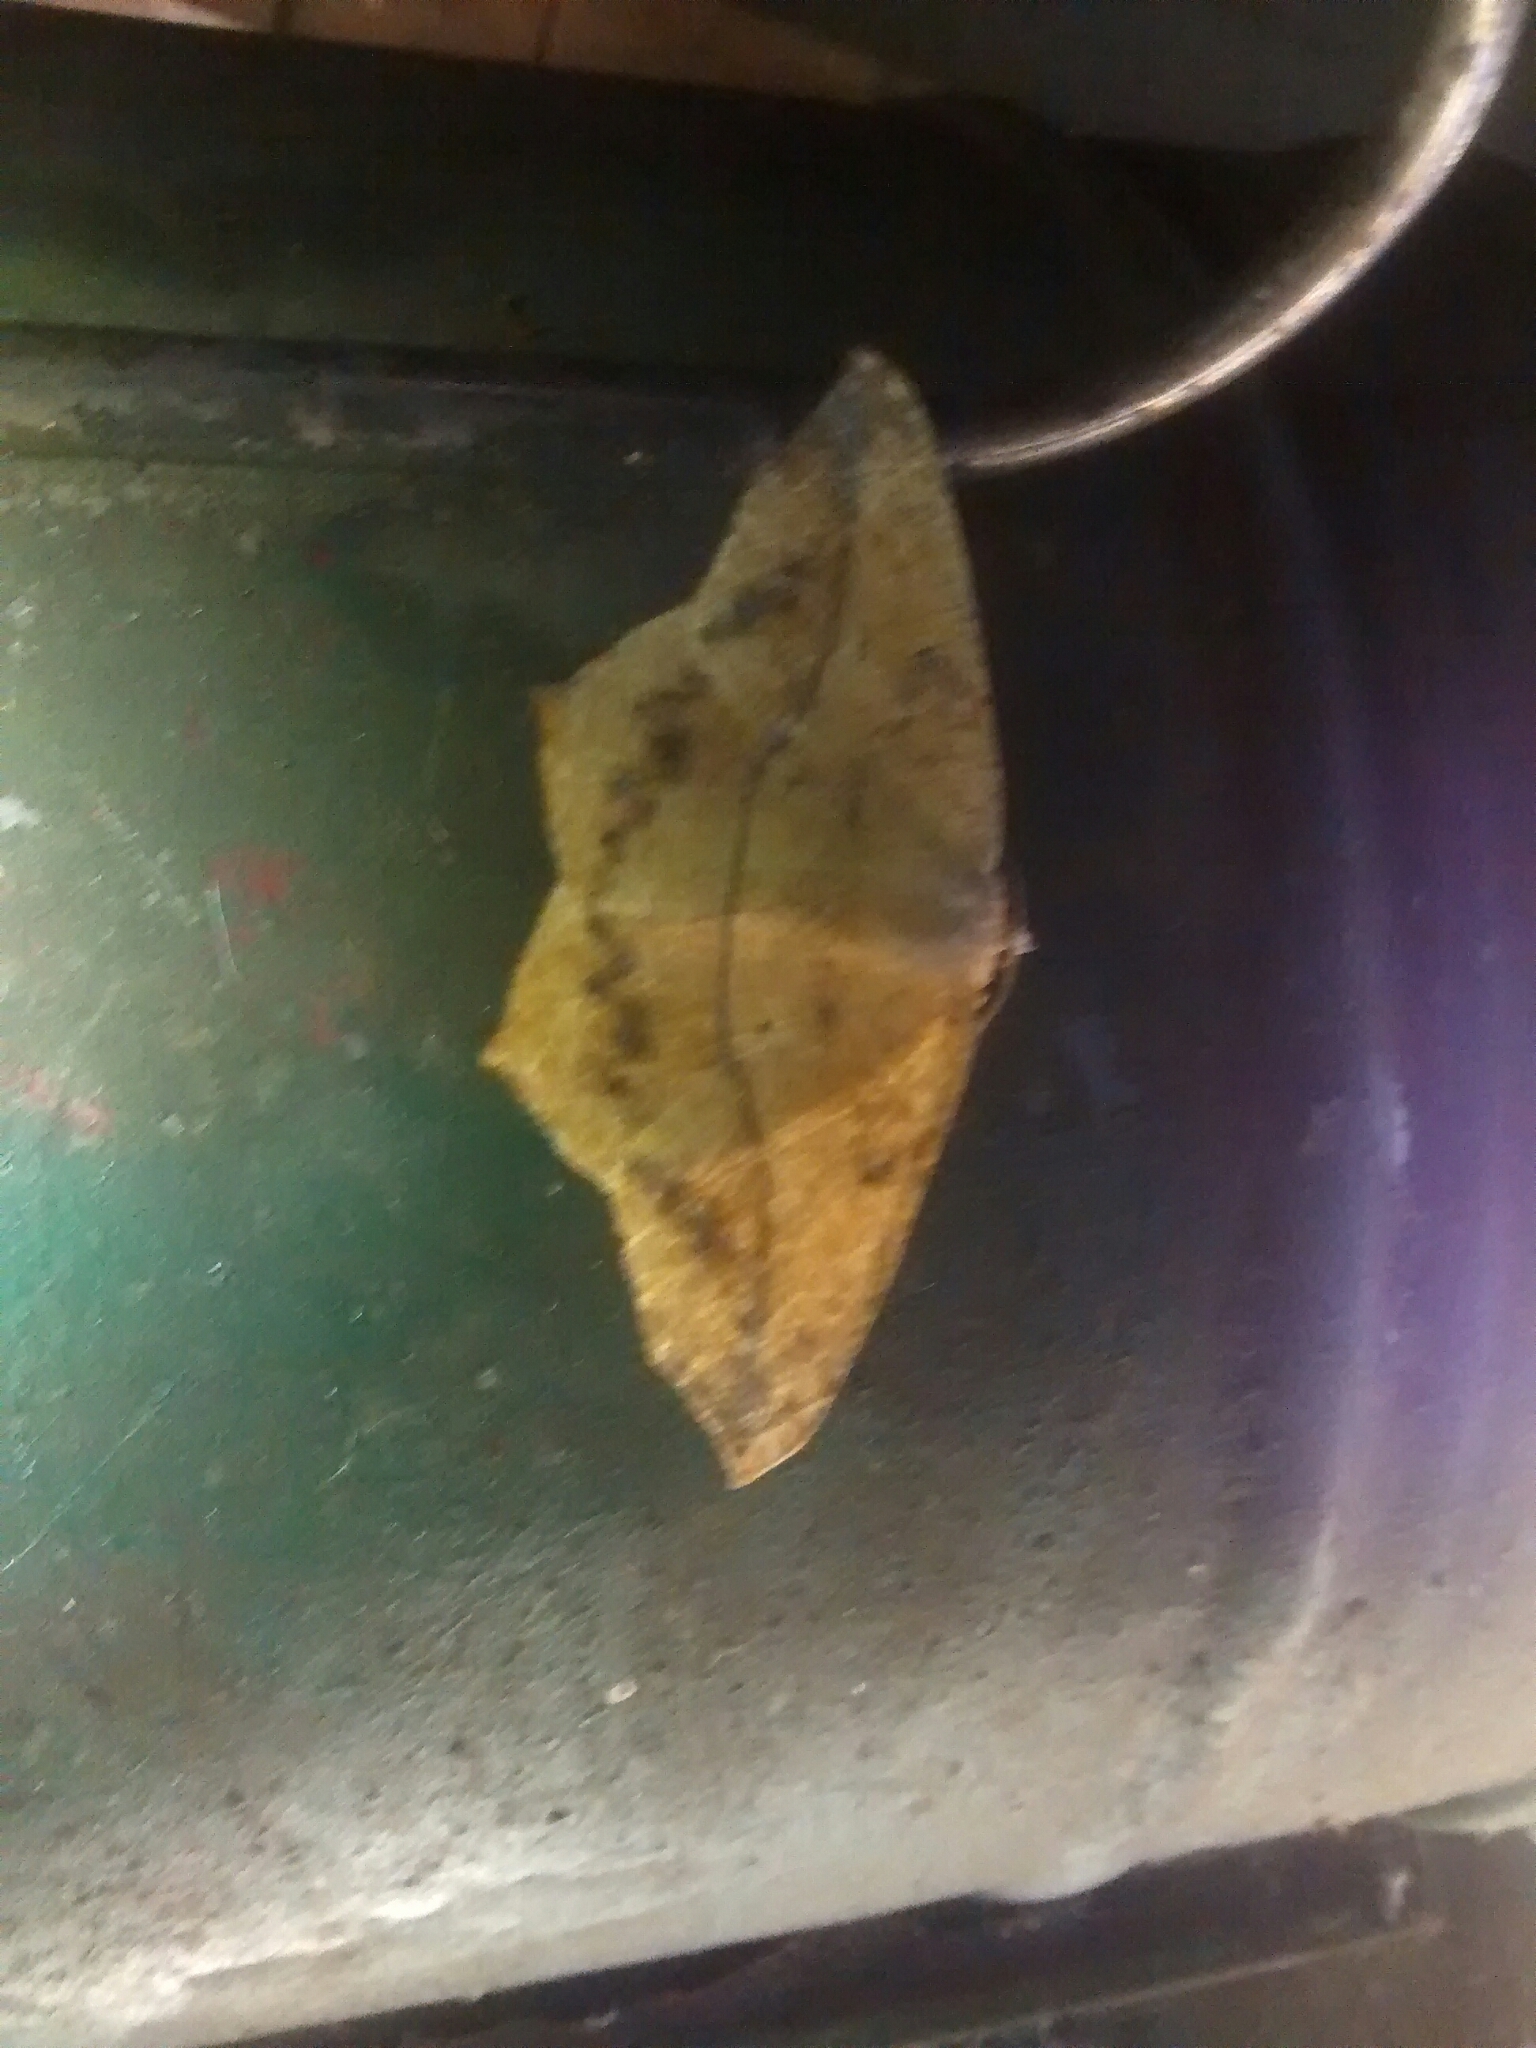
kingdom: Animalia
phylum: Arthropoda
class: Insecta
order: Lepidoptera
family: Geometridae
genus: Prochoerodes
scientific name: Prochoerodes lineola
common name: Large maple spanworm
